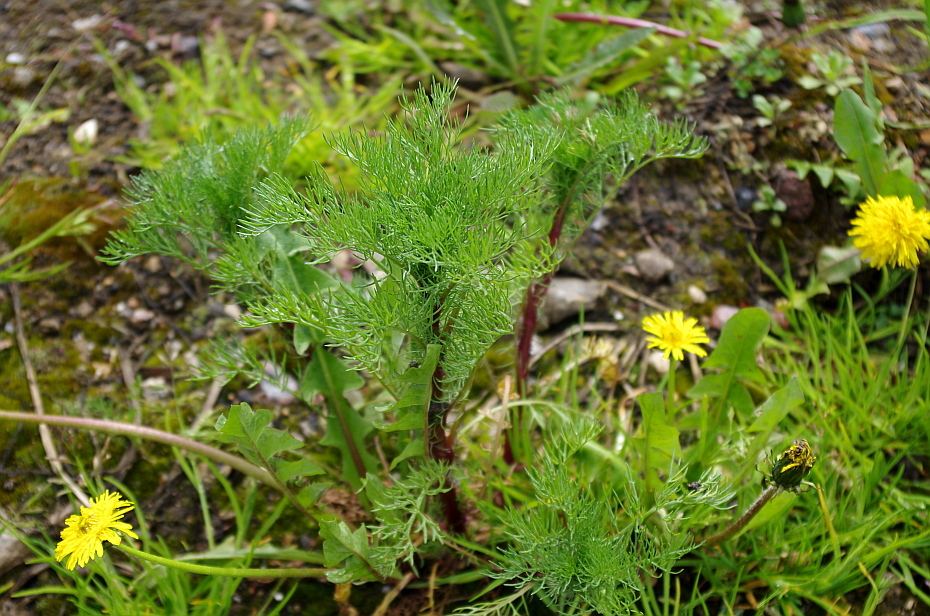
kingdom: Plantae
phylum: Tracheophyta
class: Magnoliopsida
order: Asterales
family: Asteraceae
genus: Tripleurospermum
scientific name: Tripleurospermum inodorum
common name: Scentless mayweed
